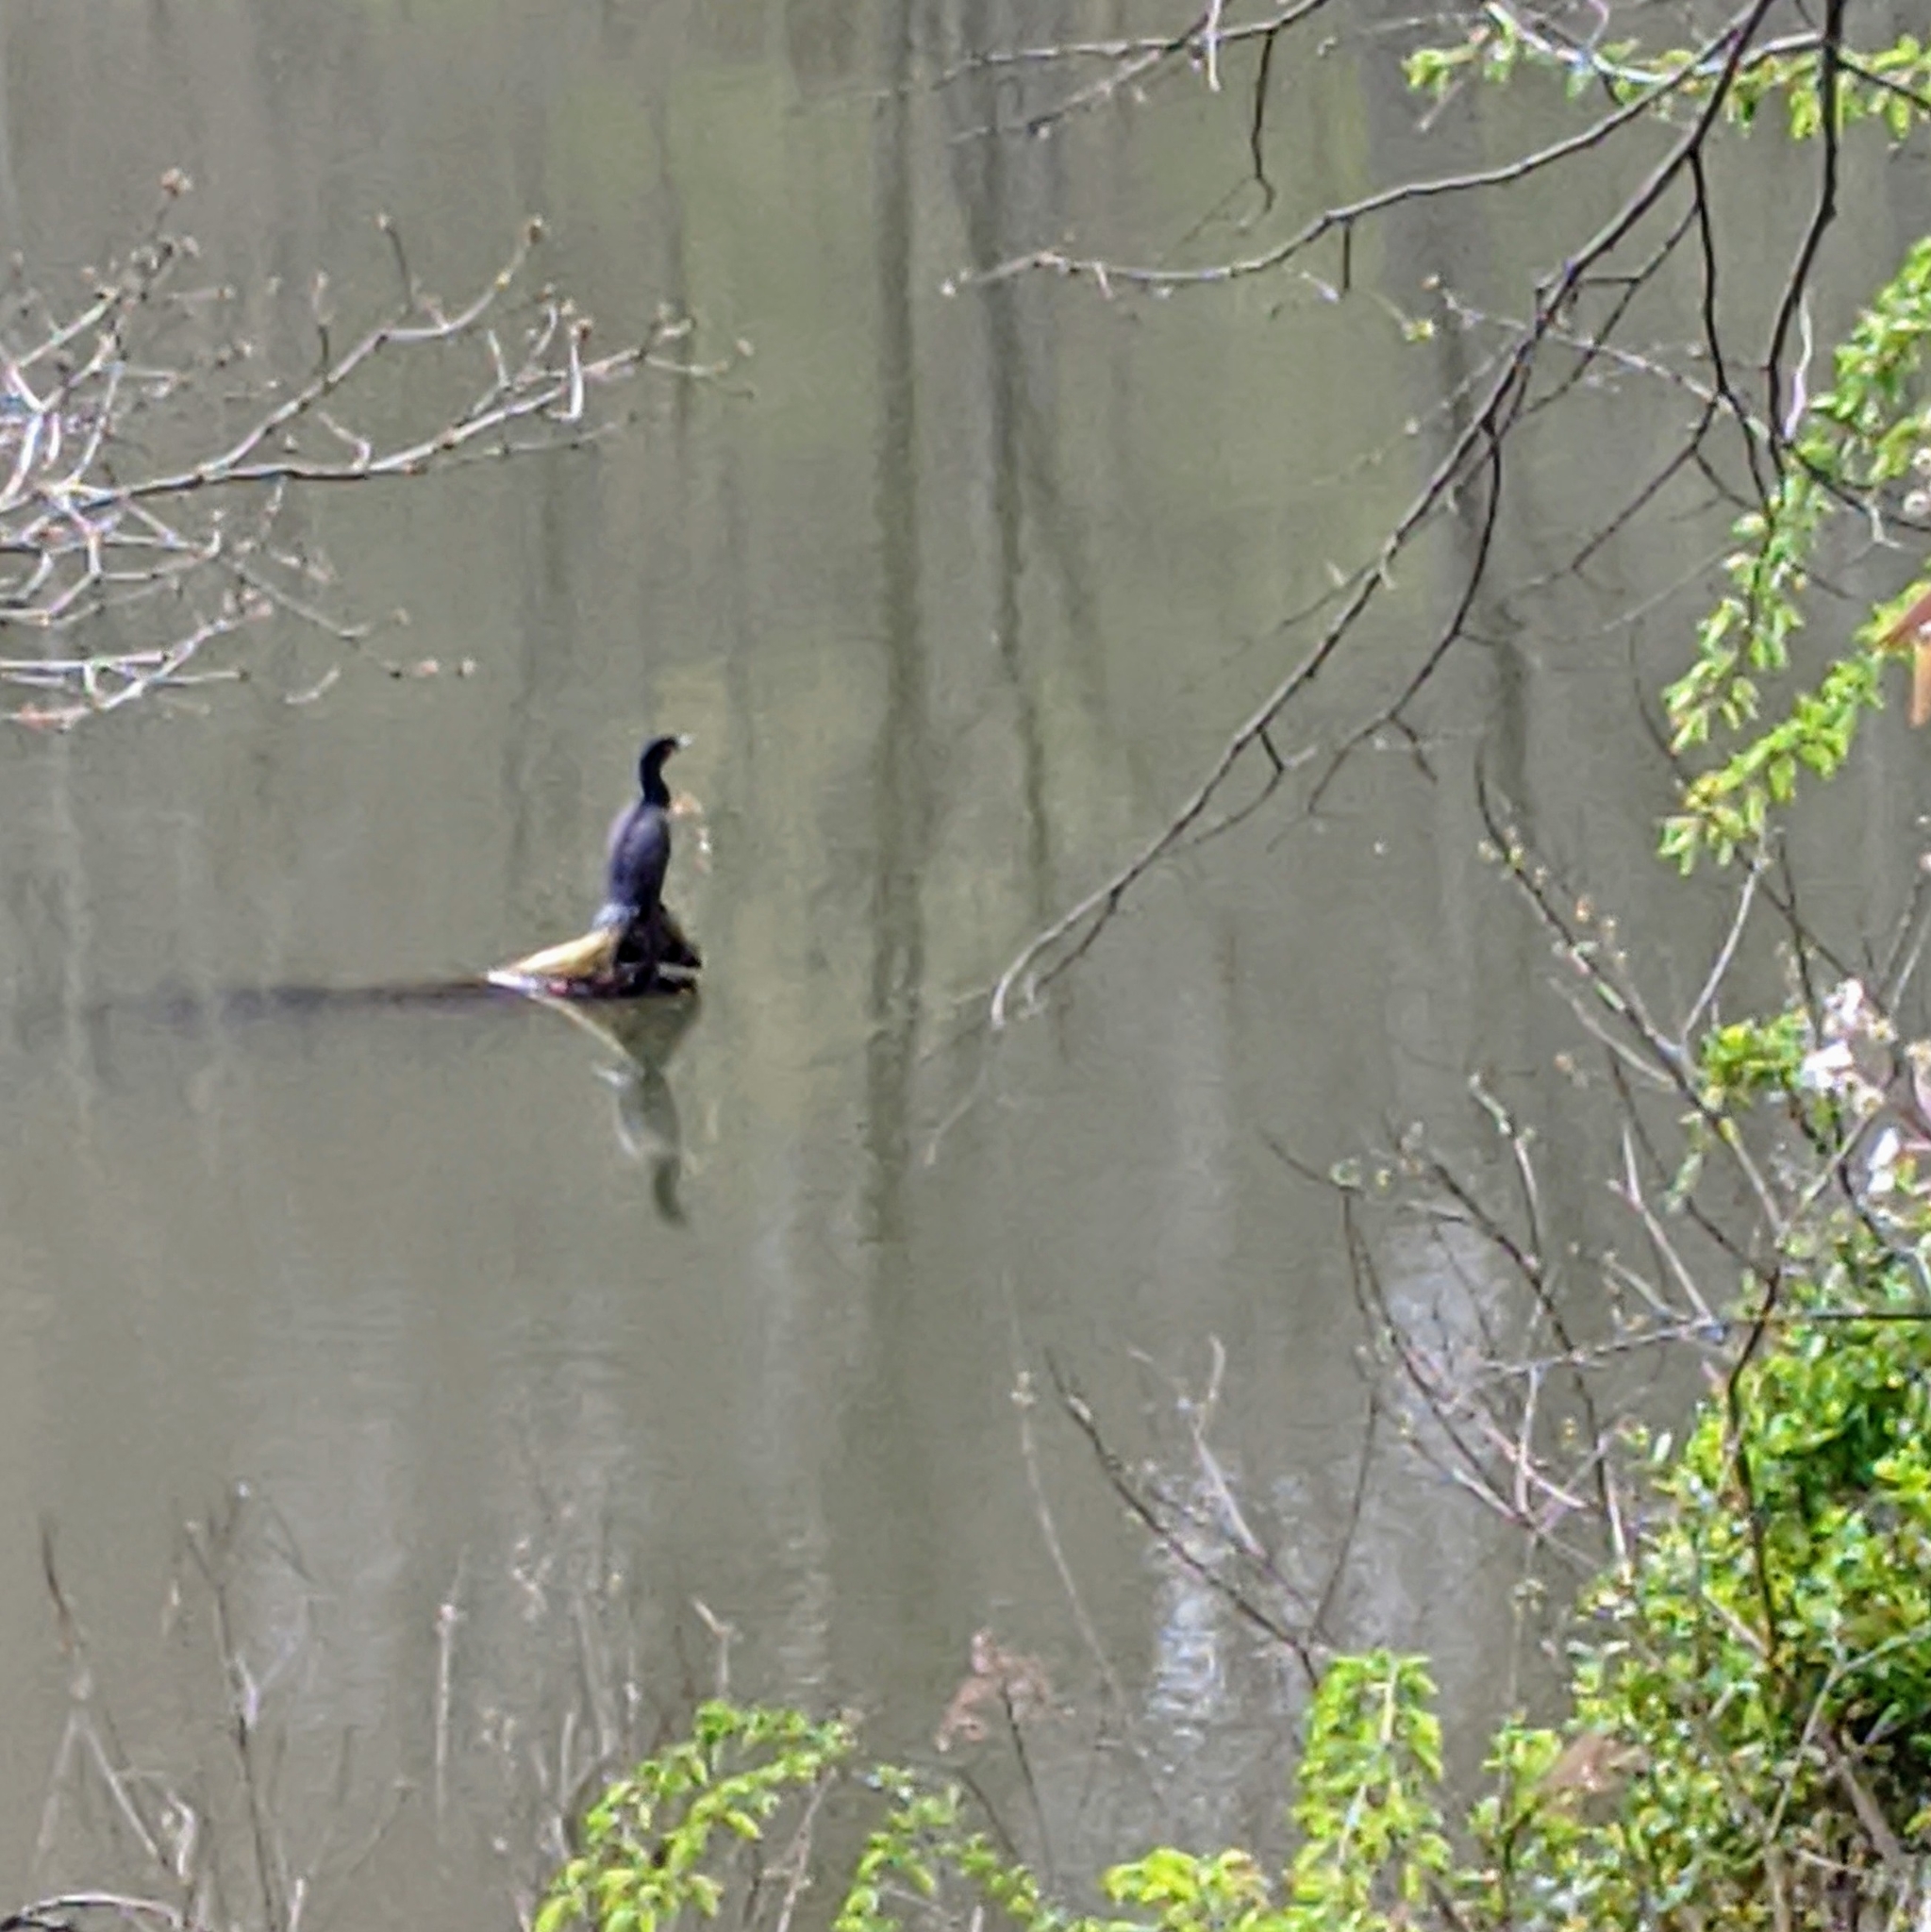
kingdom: Animalia
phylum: Chordata
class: Aves
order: Suliformes
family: Phalacrocoracidae
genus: Phalacrocorax
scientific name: Phalacrocorax auritus
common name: Double-crested cormorant
